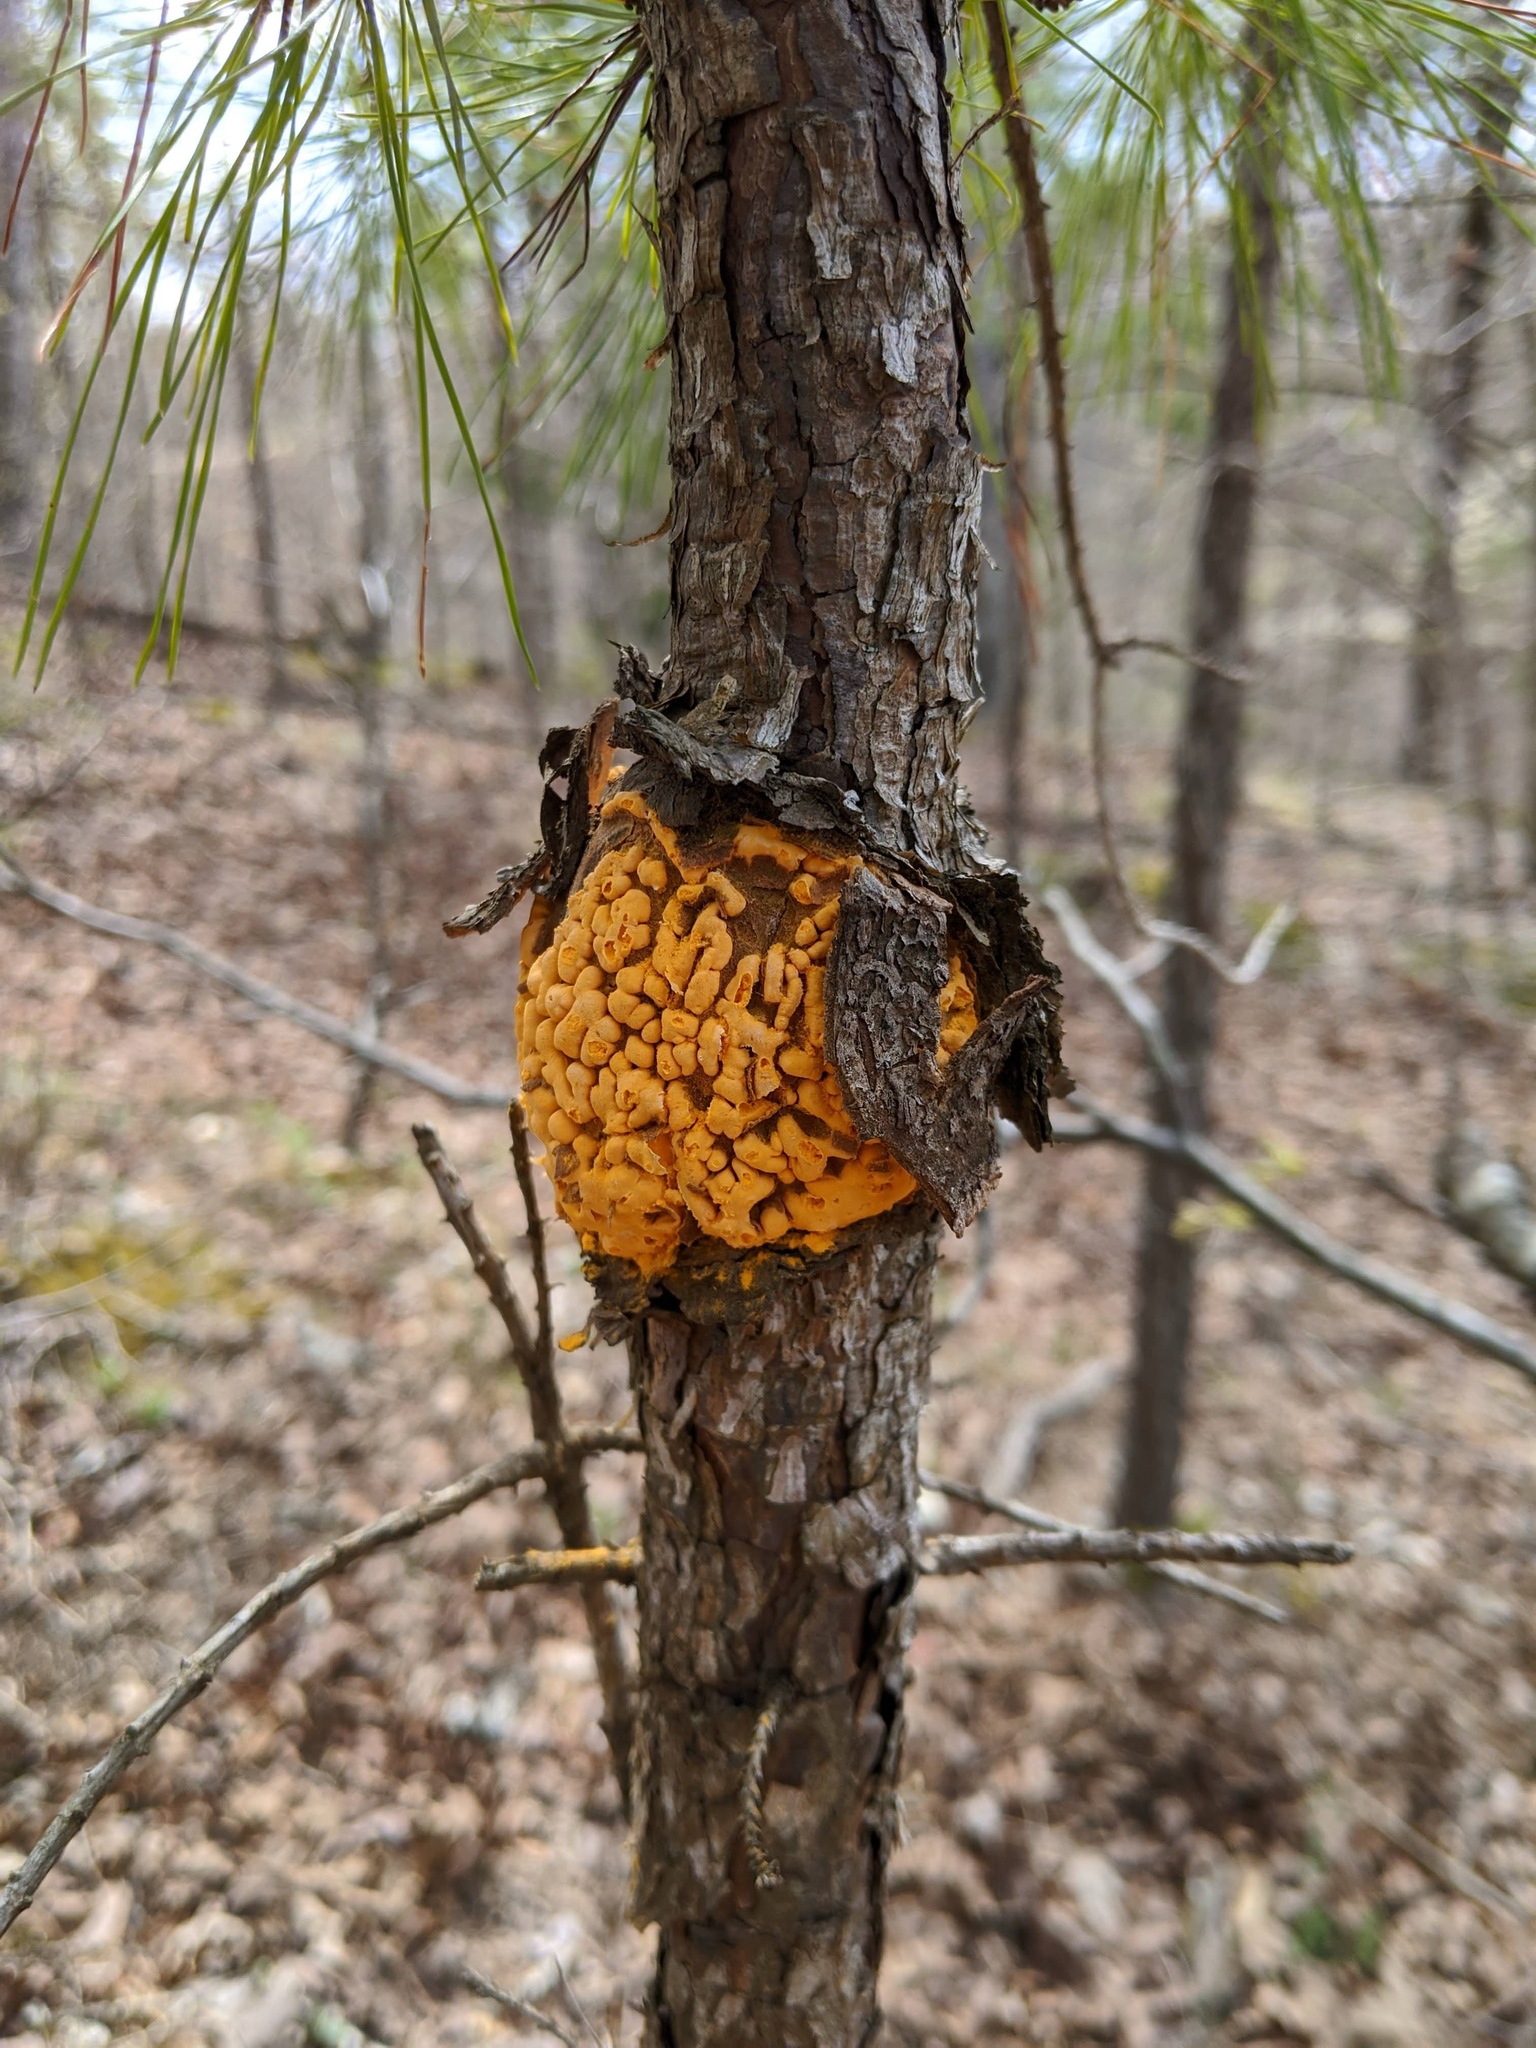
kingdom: Fungi
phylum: Basidiomycota
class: Pucciniomycetes
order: Pucciniales
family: Cronartiaceae
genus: Cronartium
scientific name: Cronartium quercuum
